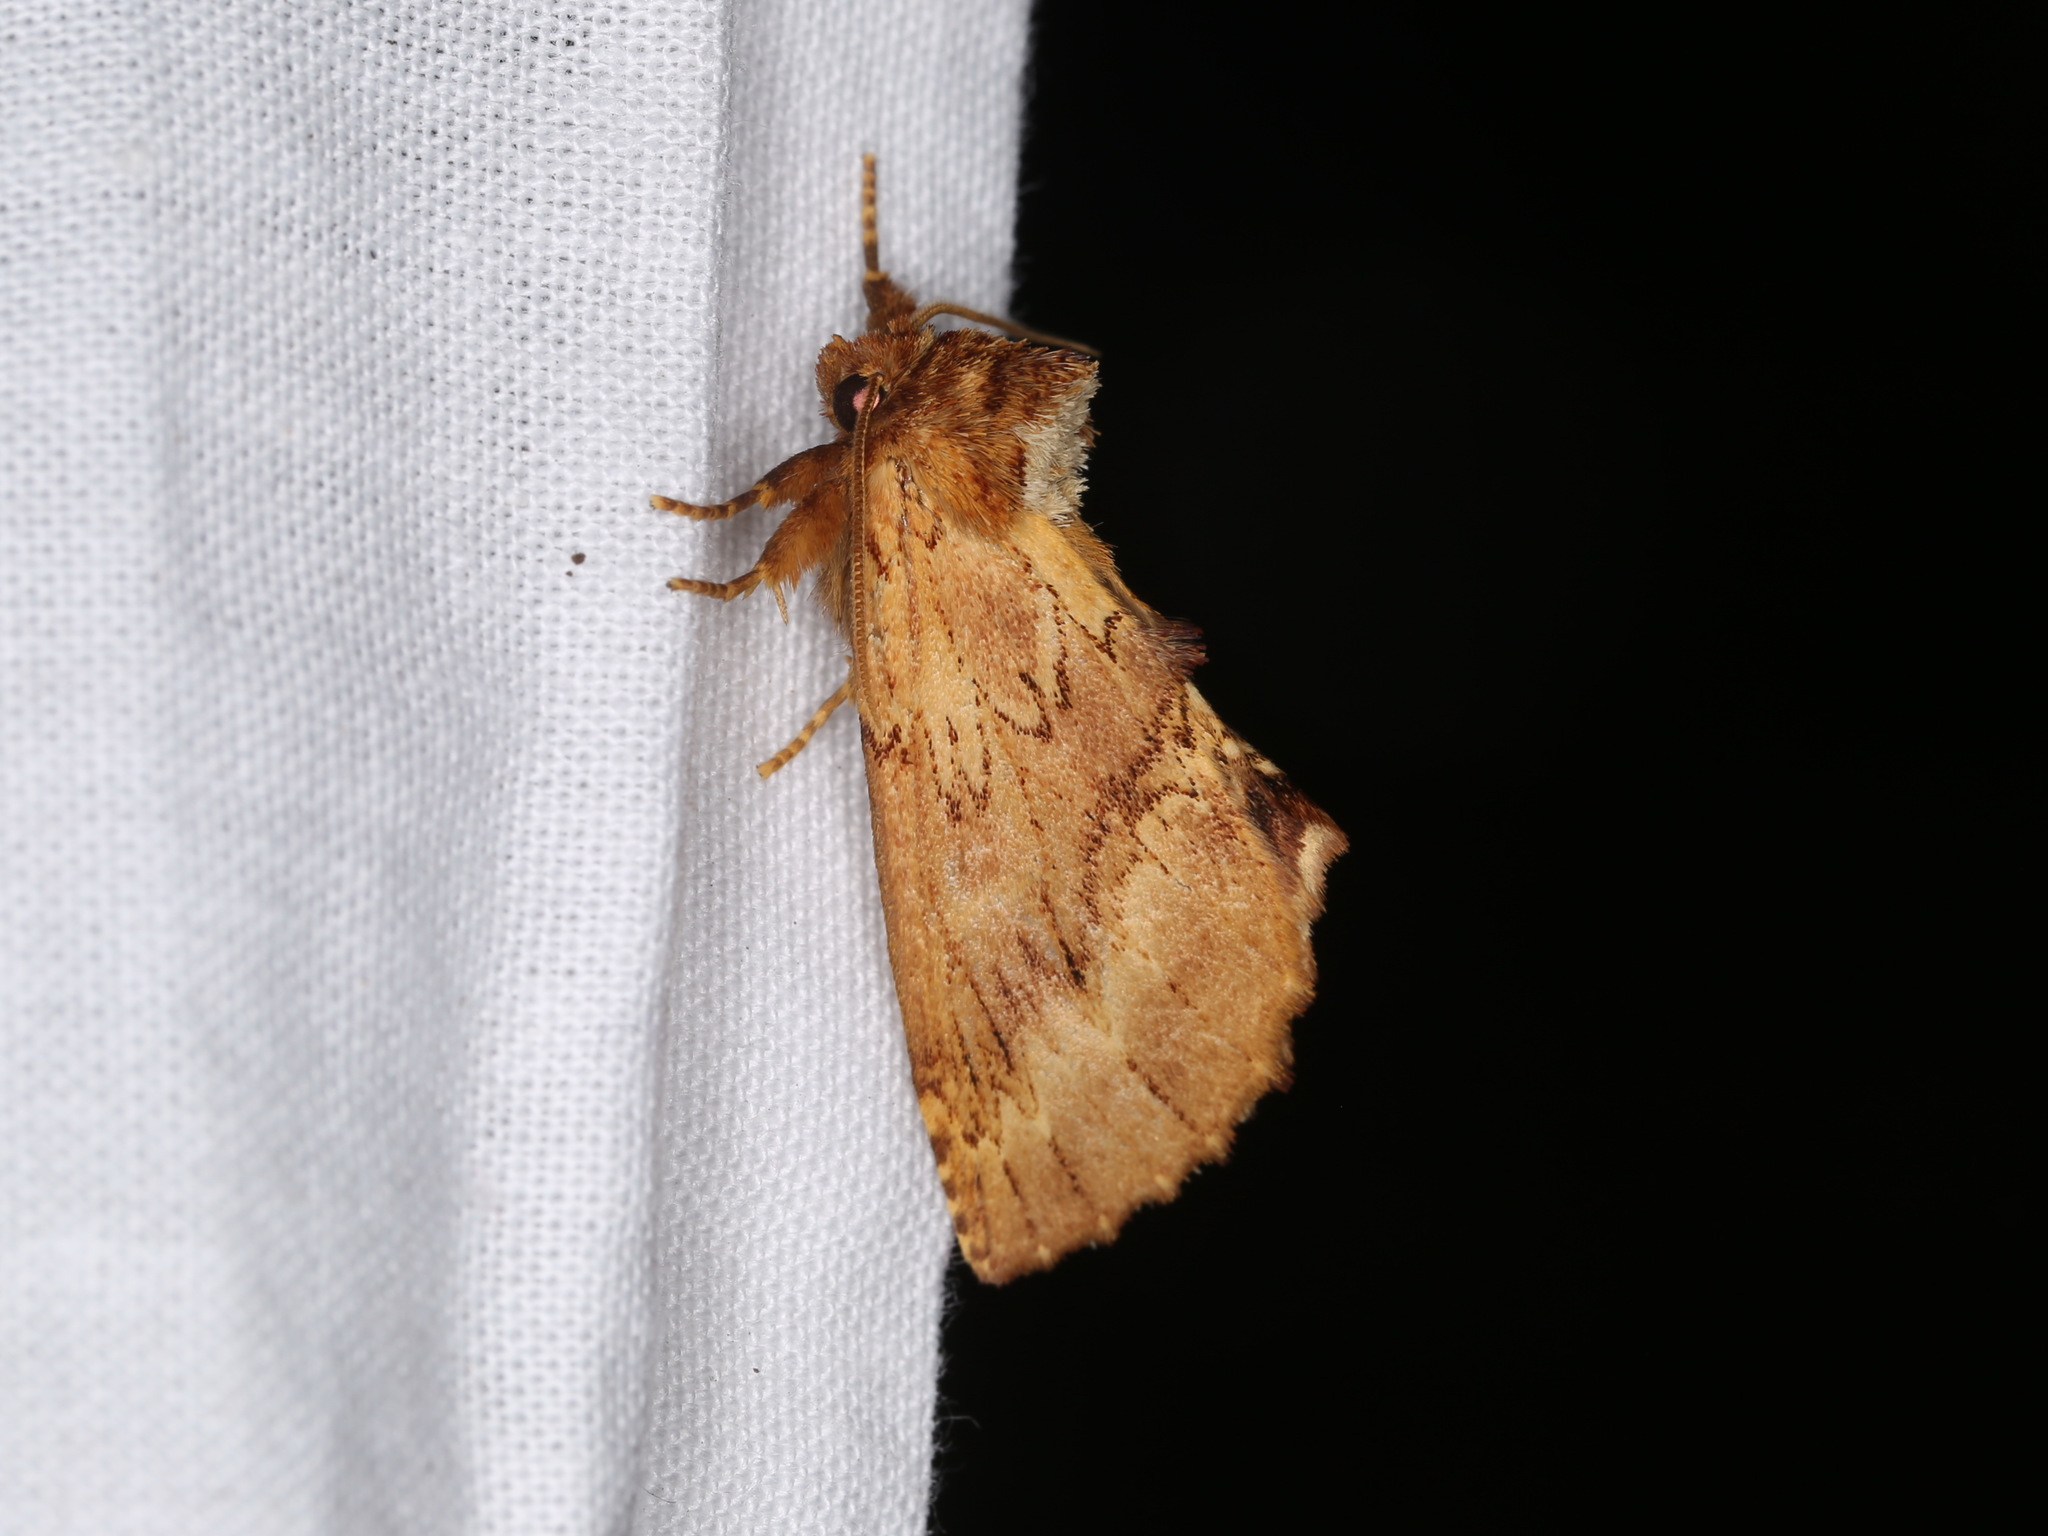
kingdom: Animalia
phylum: Arthropoda
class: Insecta
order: Lepidoptera
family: Notodontidae
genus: Ptilodon
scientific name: Ptilodon capucina
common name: Coxcomb prominent
